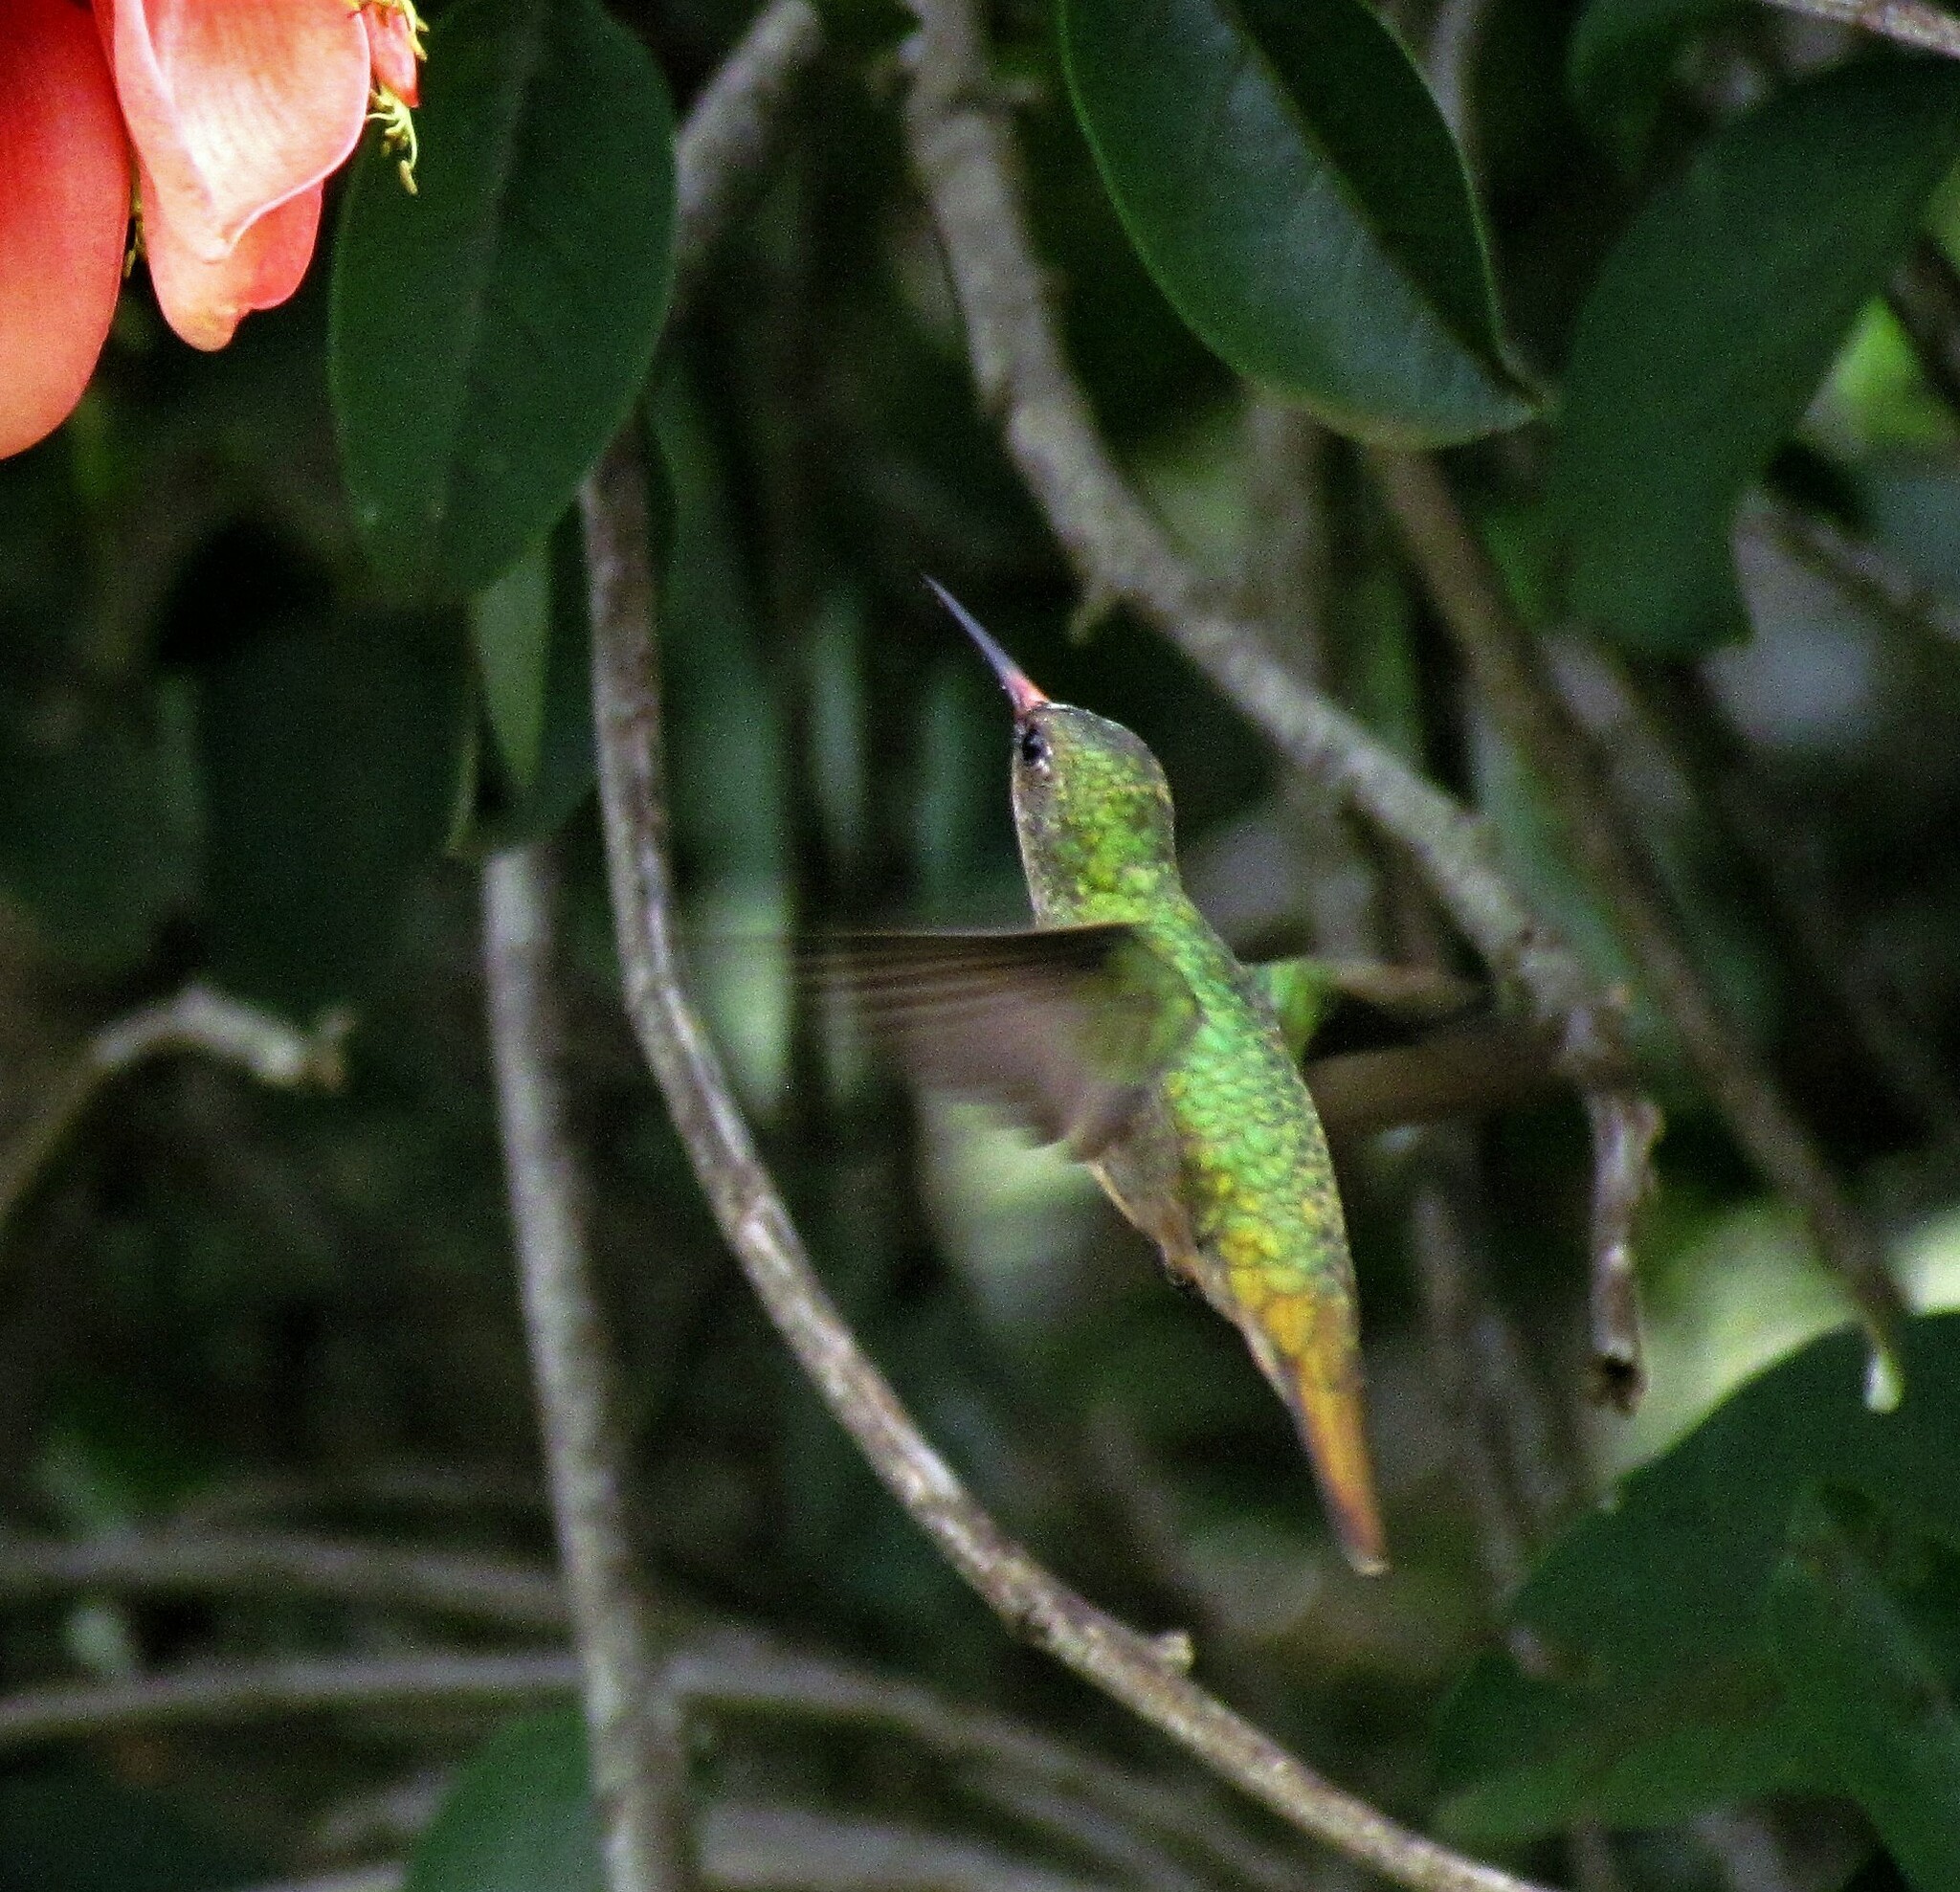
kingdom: Animalia
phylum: Chordata
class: Aves
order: Apodiformes
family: Trochilidae
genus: Hylocharis
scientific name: Hylocharis chrysura
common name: Gilded sapphire
